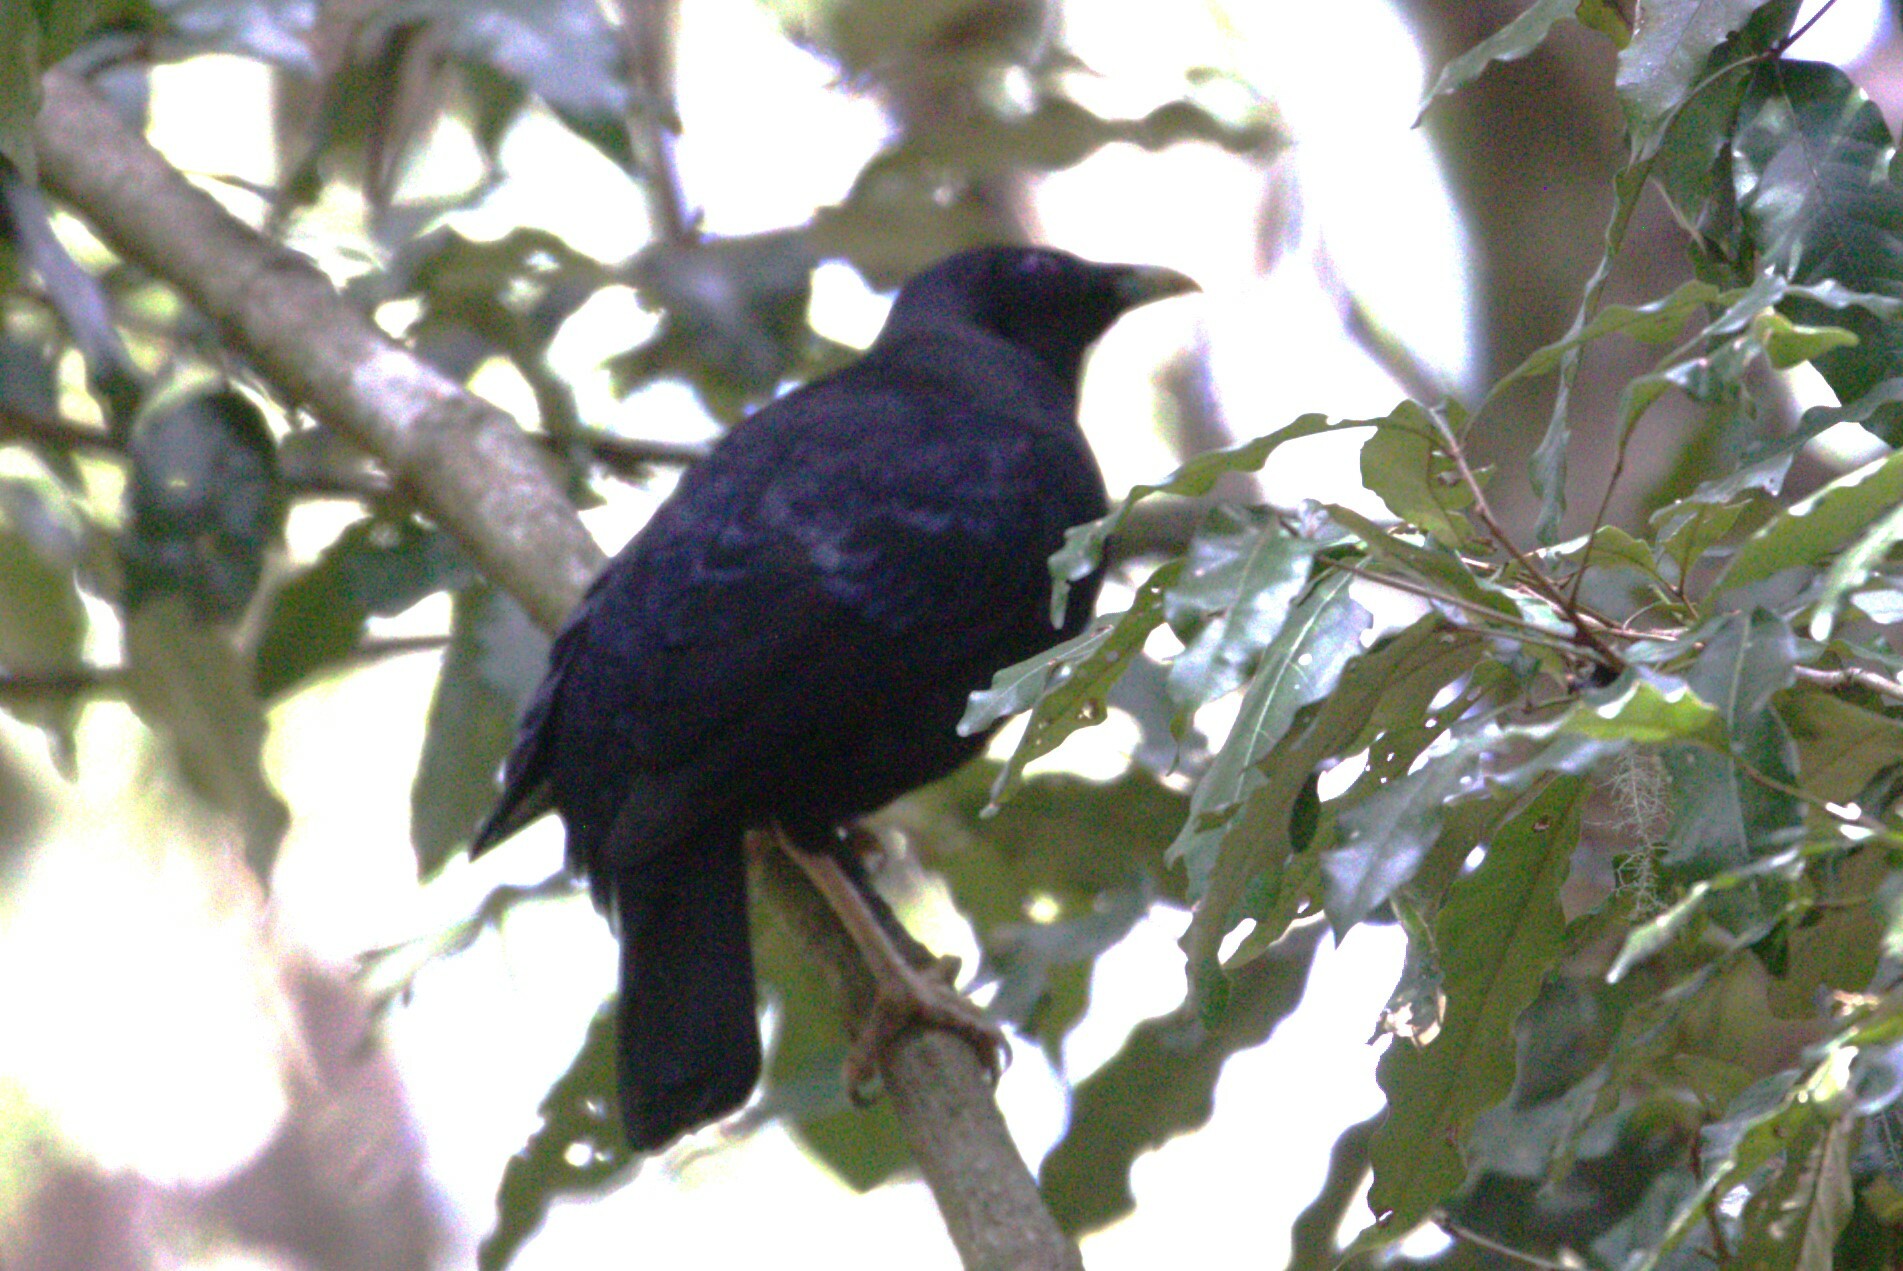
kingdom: Animalia
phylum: Chordata
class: Aves
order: Passeriformes
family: Ptilonorhynchidae
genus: Ptilonorhynchus
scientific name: Ptilonorhynchus violaceus
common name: Satin bowerbird
